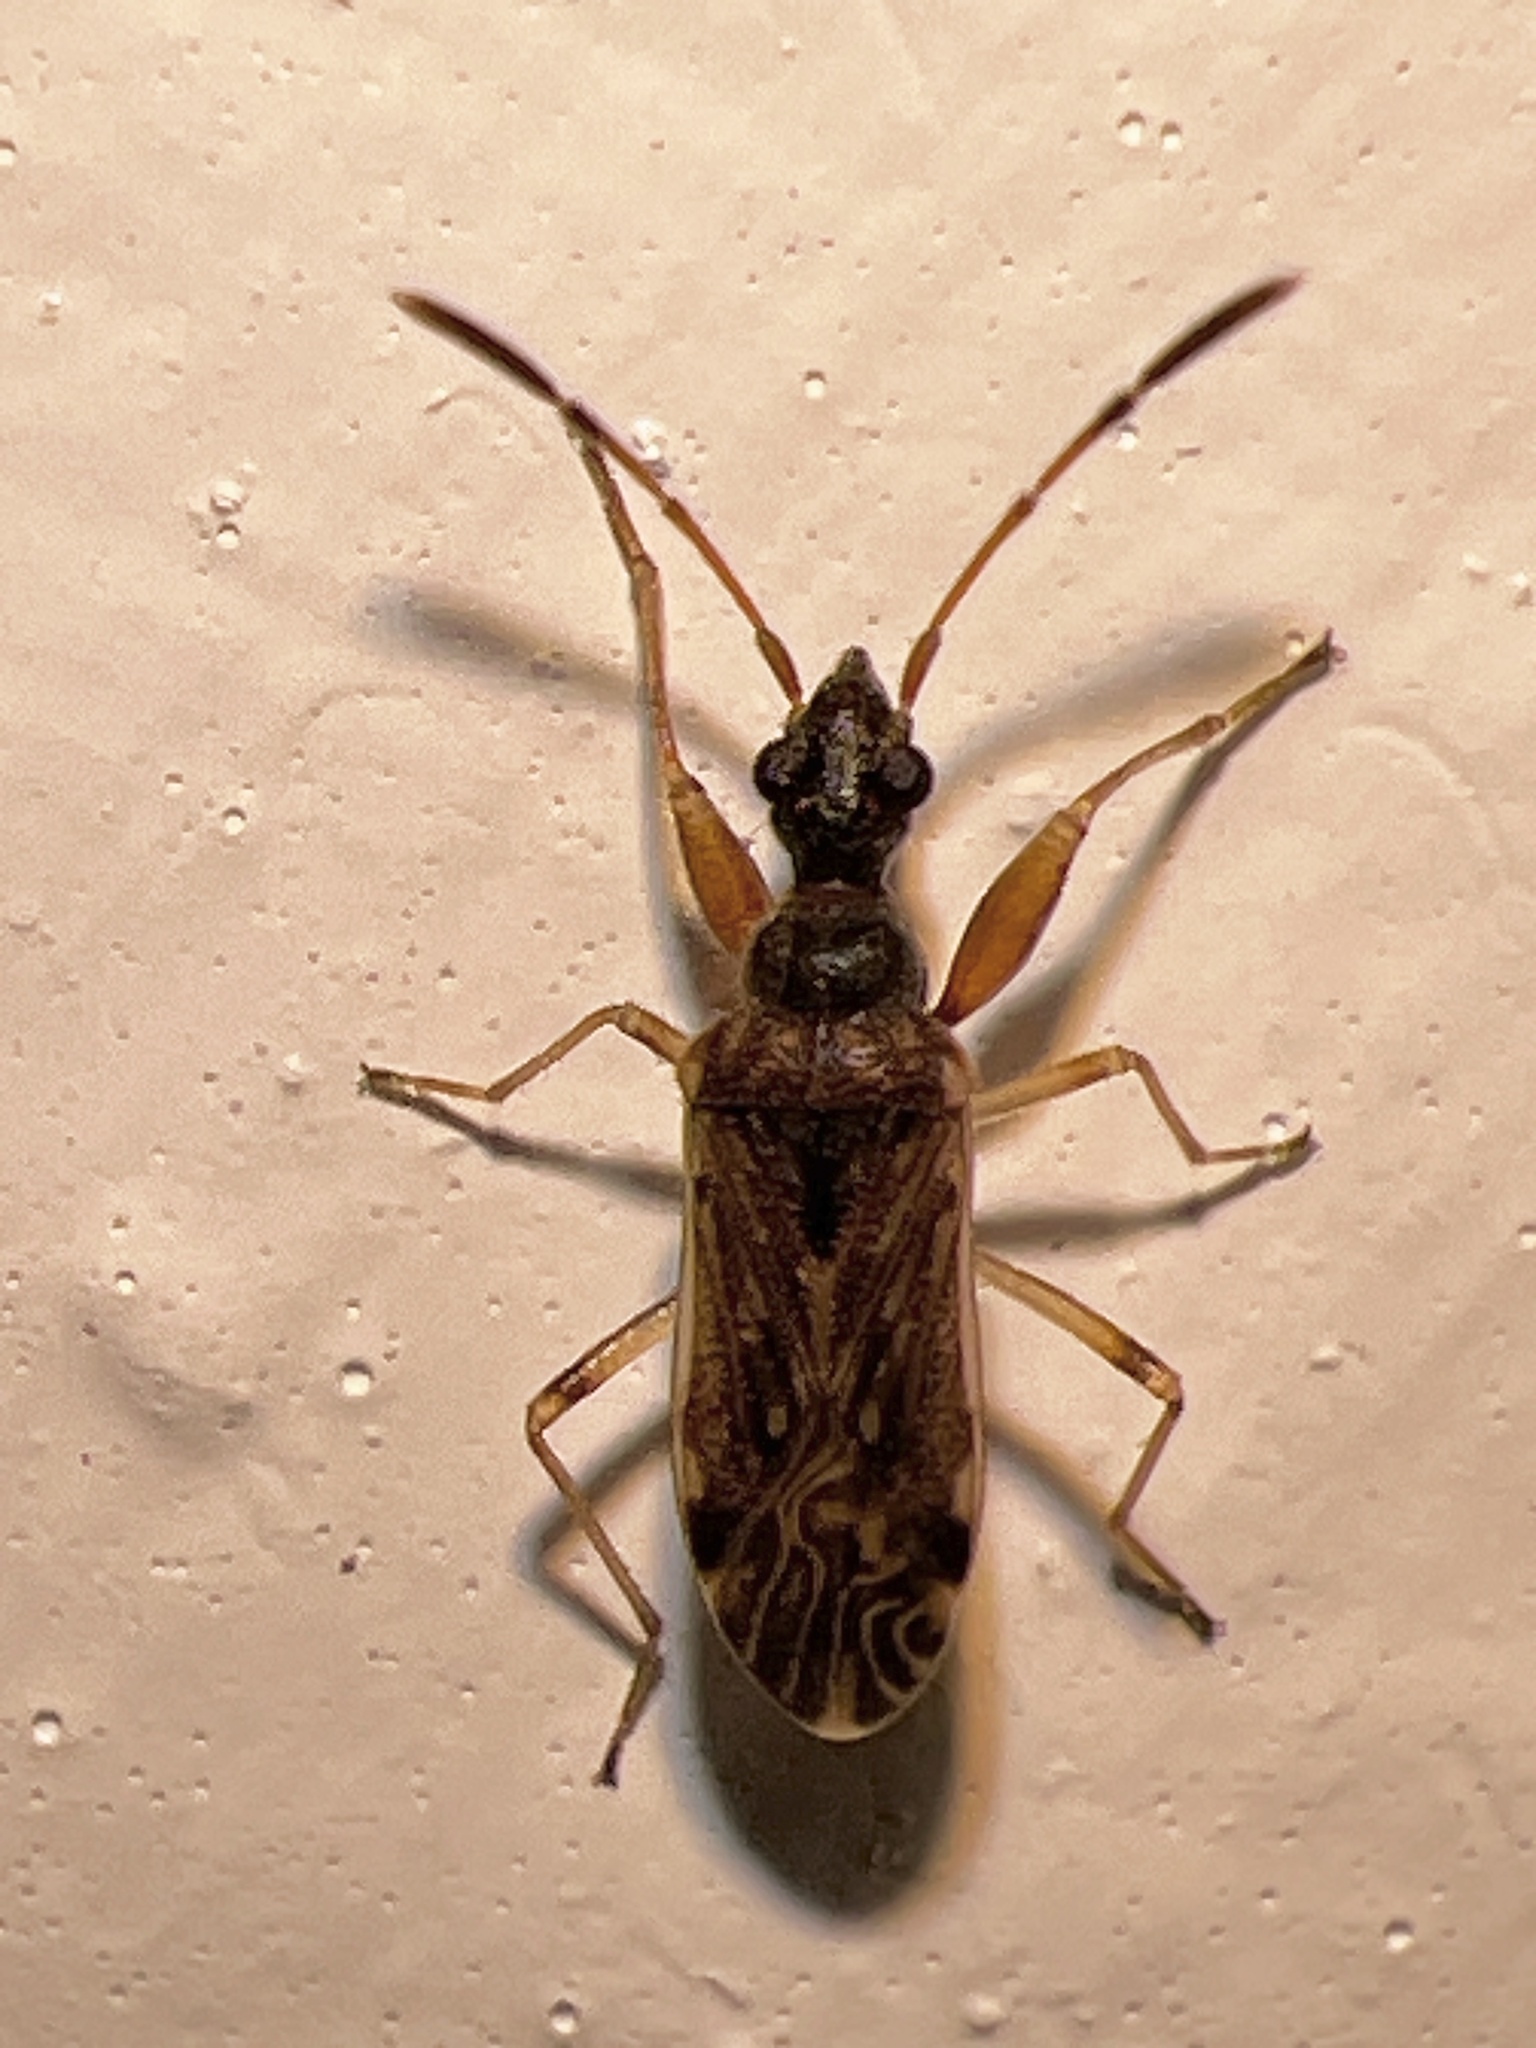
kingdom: Animalia
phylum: Arthropoda
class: Insecta
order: Hemiptera
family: Rhyparochromidae
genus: Heraeus
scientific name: Heraeus plebejus
